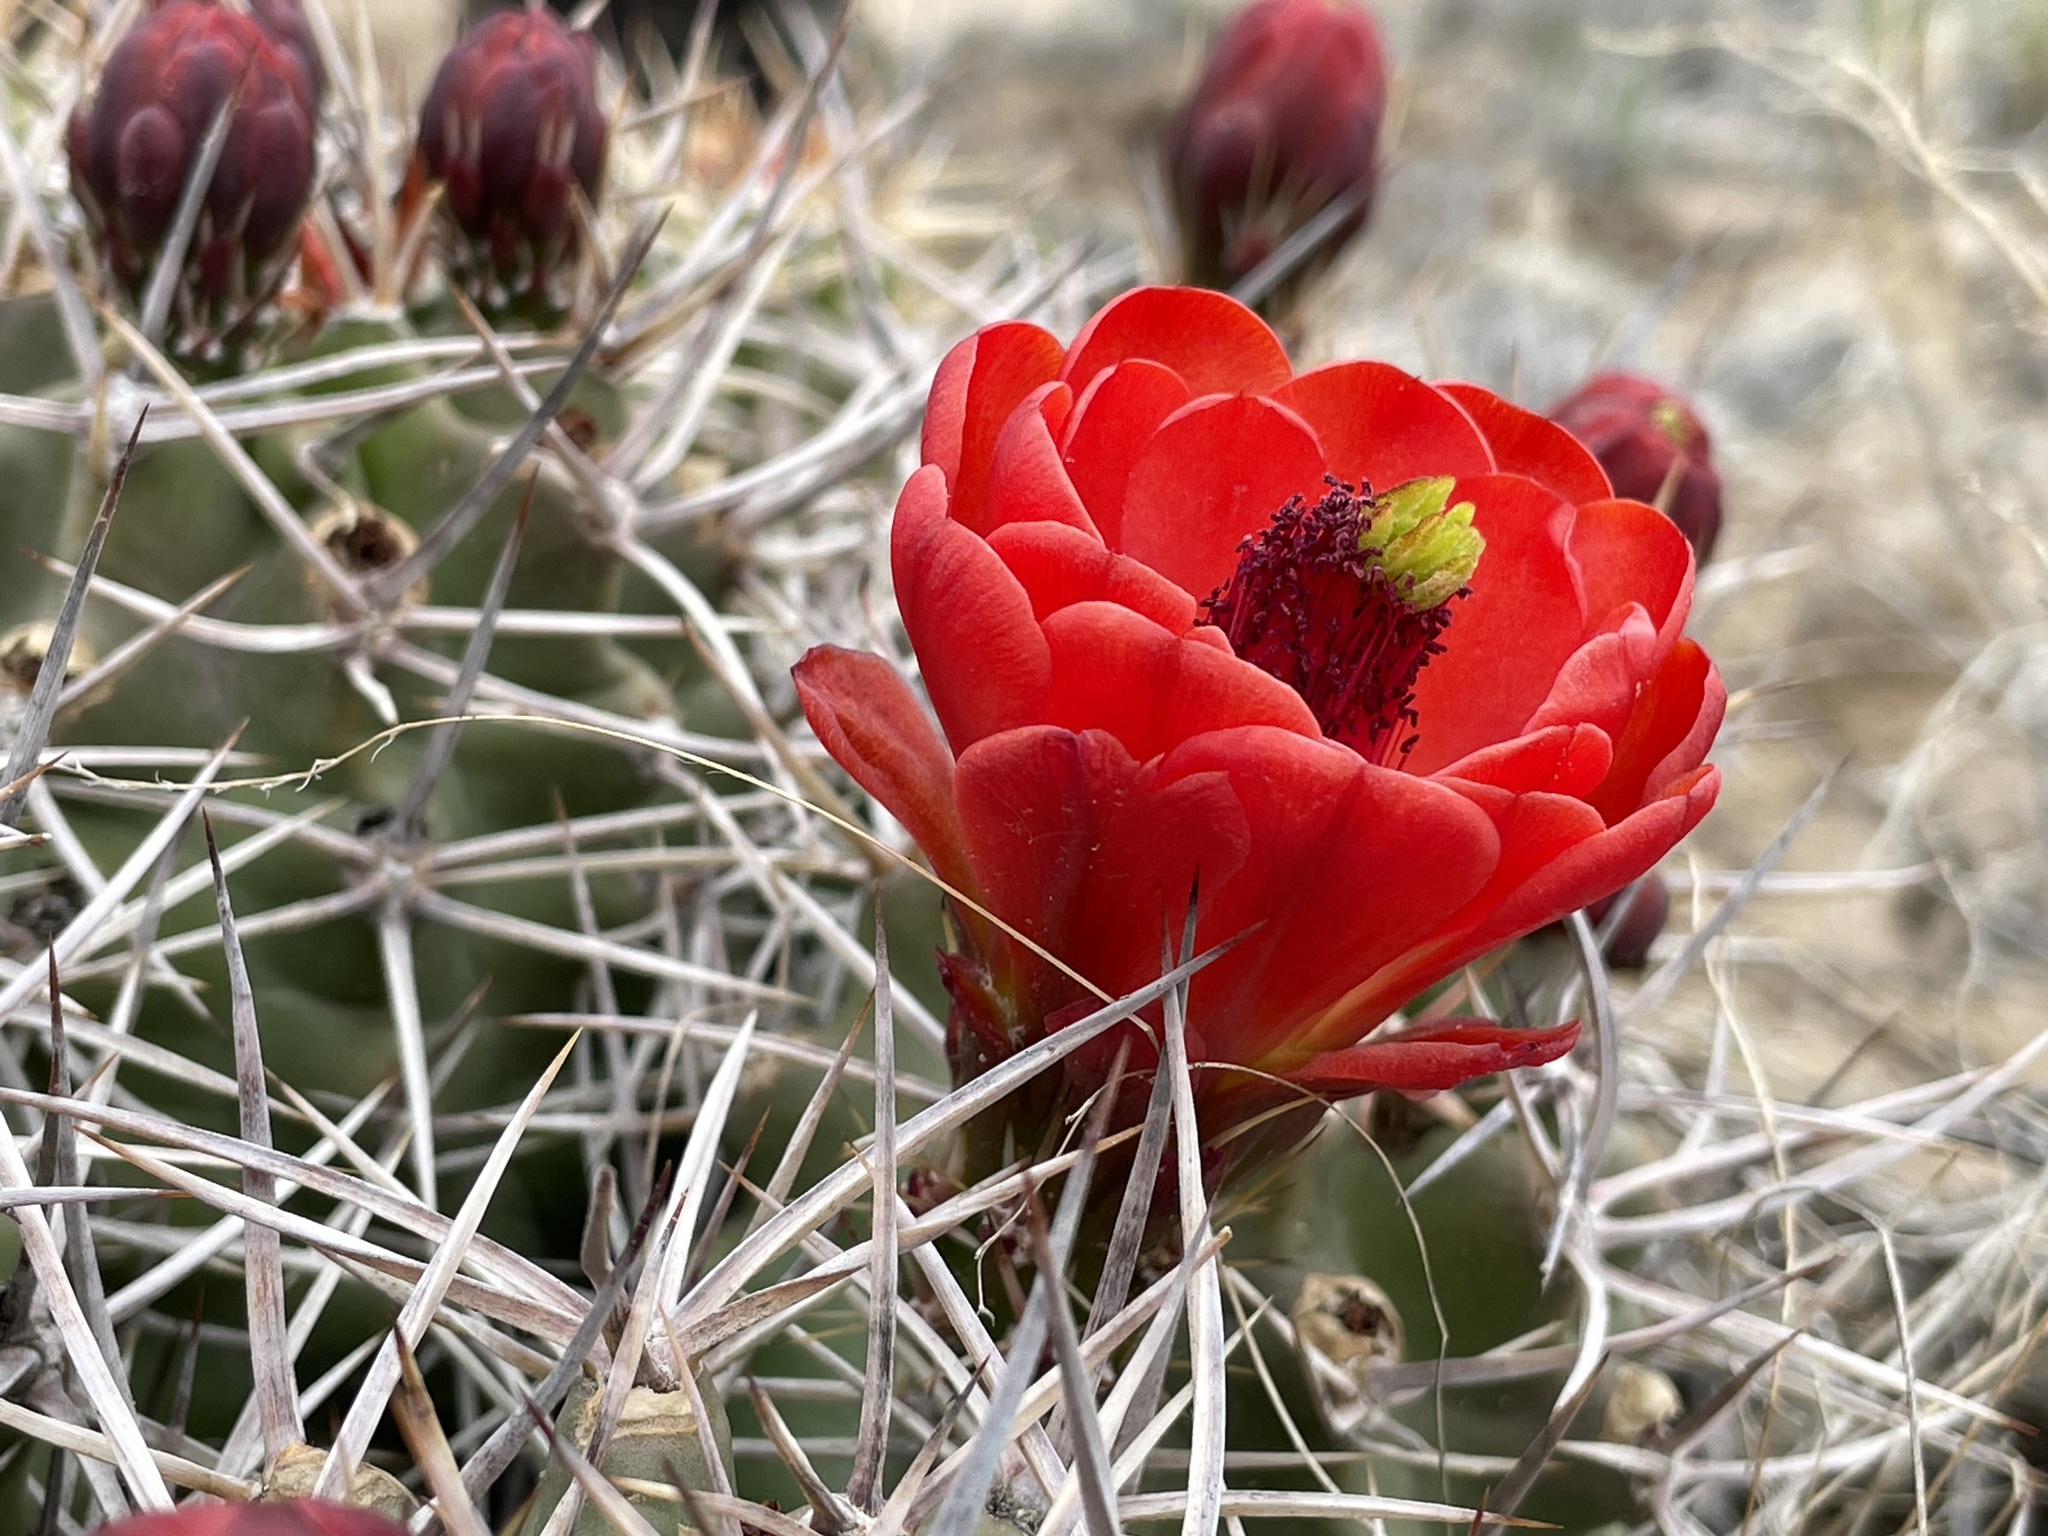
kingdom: Plantae
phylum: Tracheophyta
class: Magnoliopsida
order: Caryophyllales
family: Cactaceae
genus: Echinocereus
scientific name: Echinocereus triglochidiatus
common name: Claretcup hedgehog
